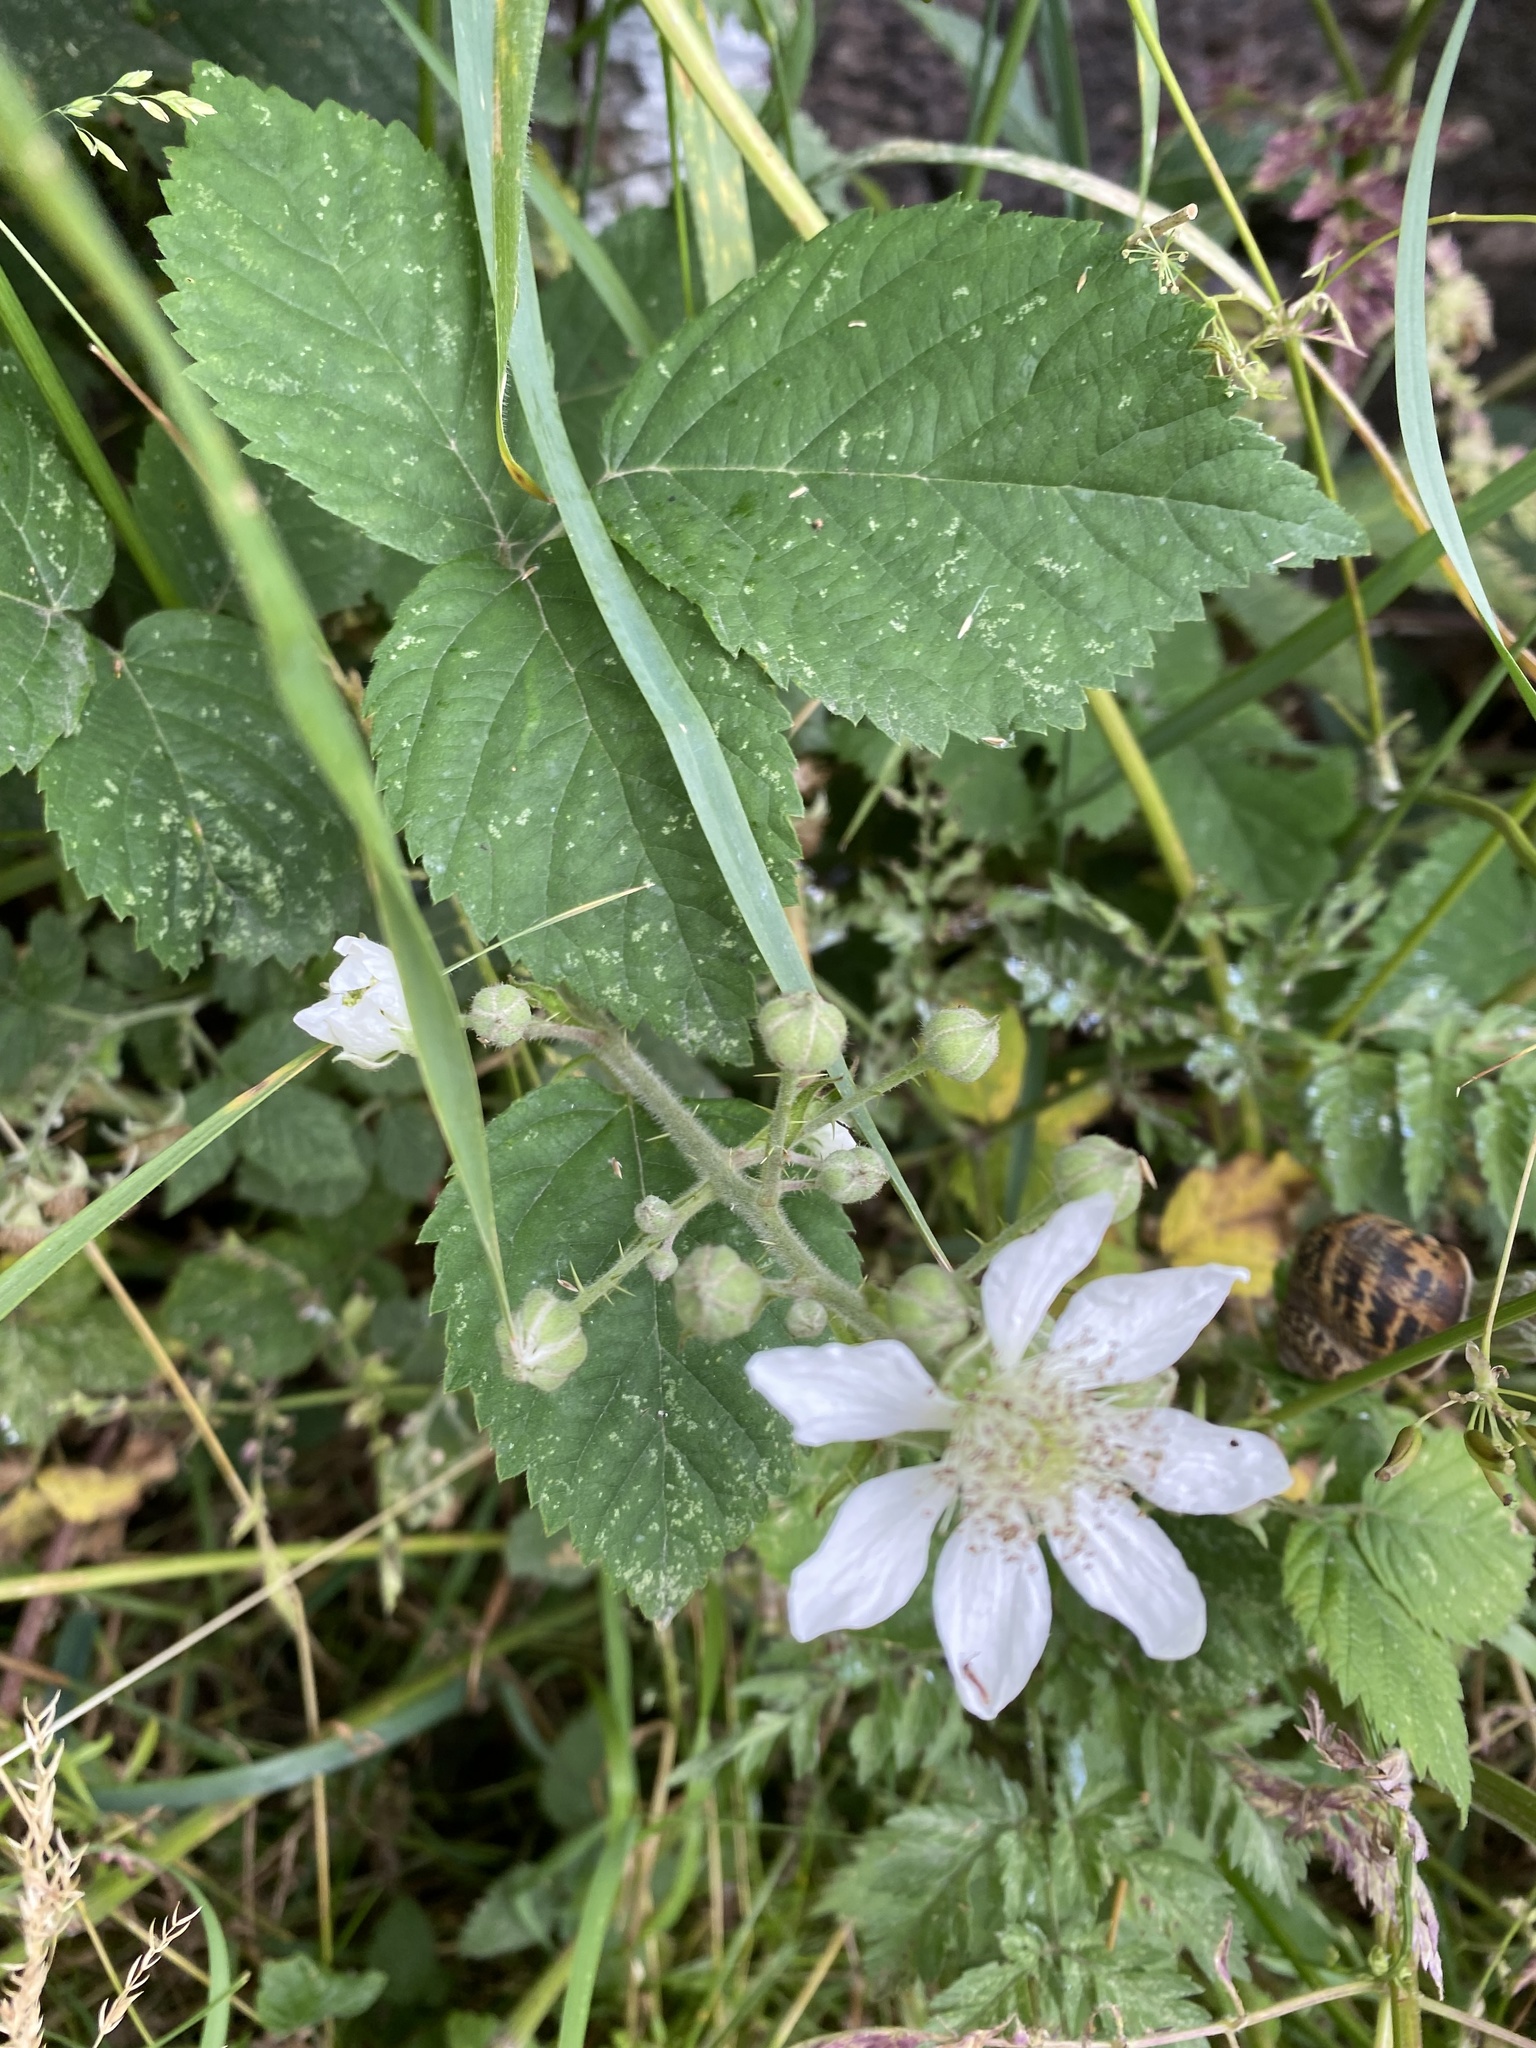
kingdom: Plantae
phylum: Tracheophyta
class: Magnoliopsida
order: Rosales
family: Rosaceae
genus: Rubus
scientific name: Rubus caesius
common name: Dewberry
